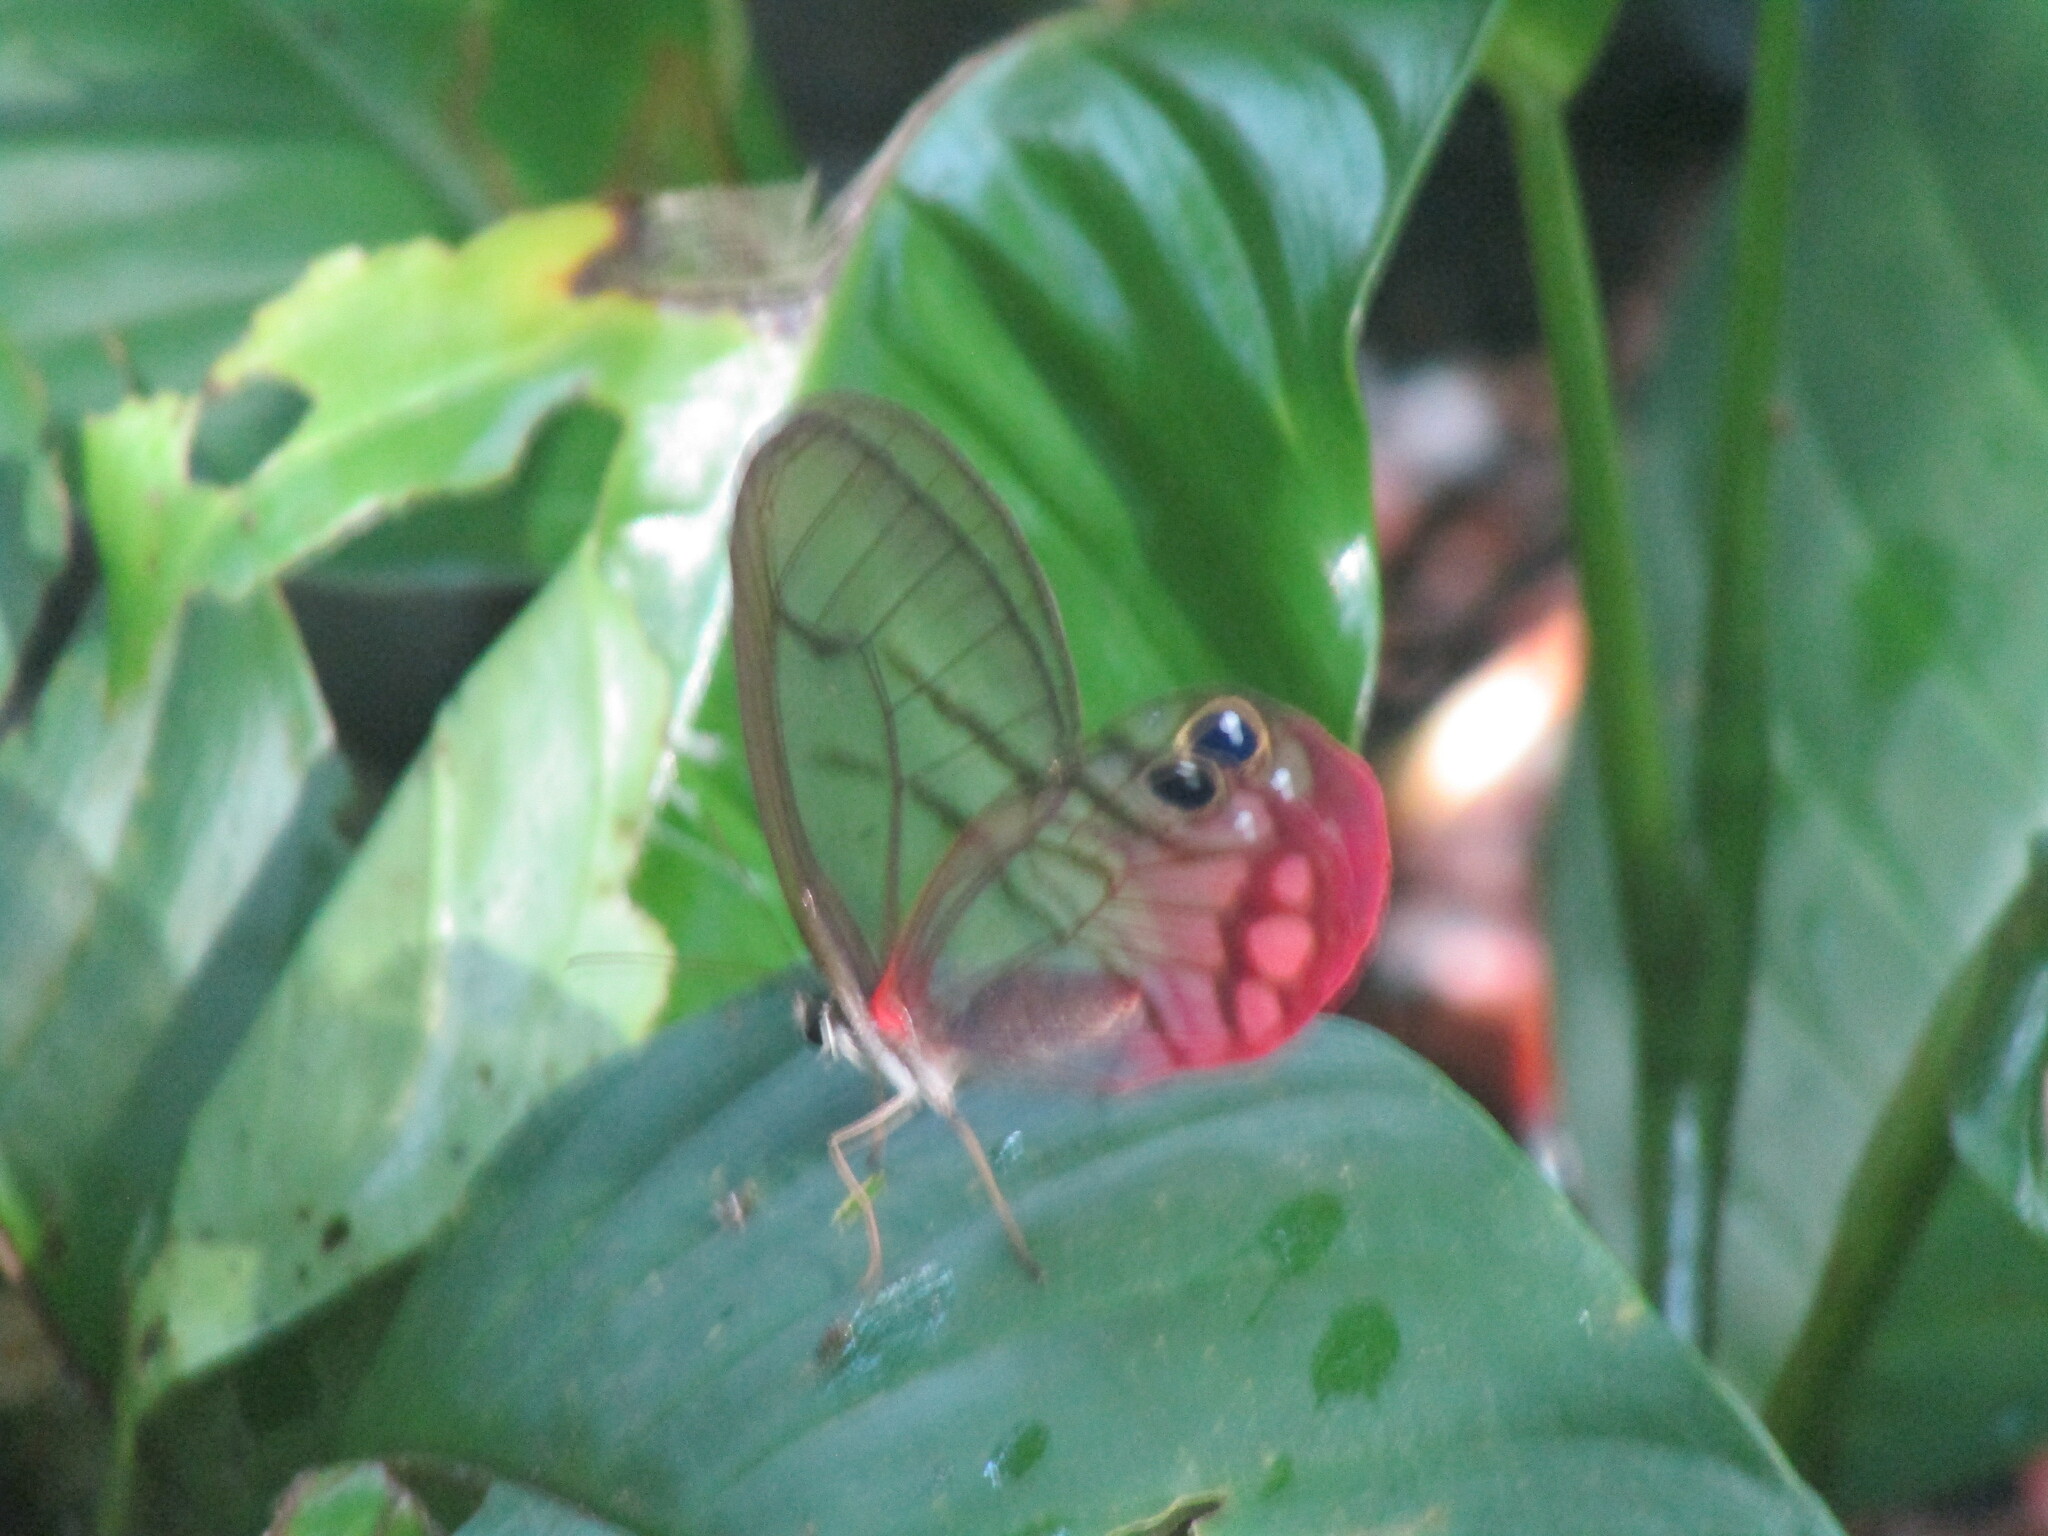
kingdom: Animalia
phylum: Arthropoda
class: Insecta
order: Lepidoptera
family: Nymphalidae
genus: Cithaerias
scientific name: Cithaerias pireta
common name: Rusted clearwing-satyr
